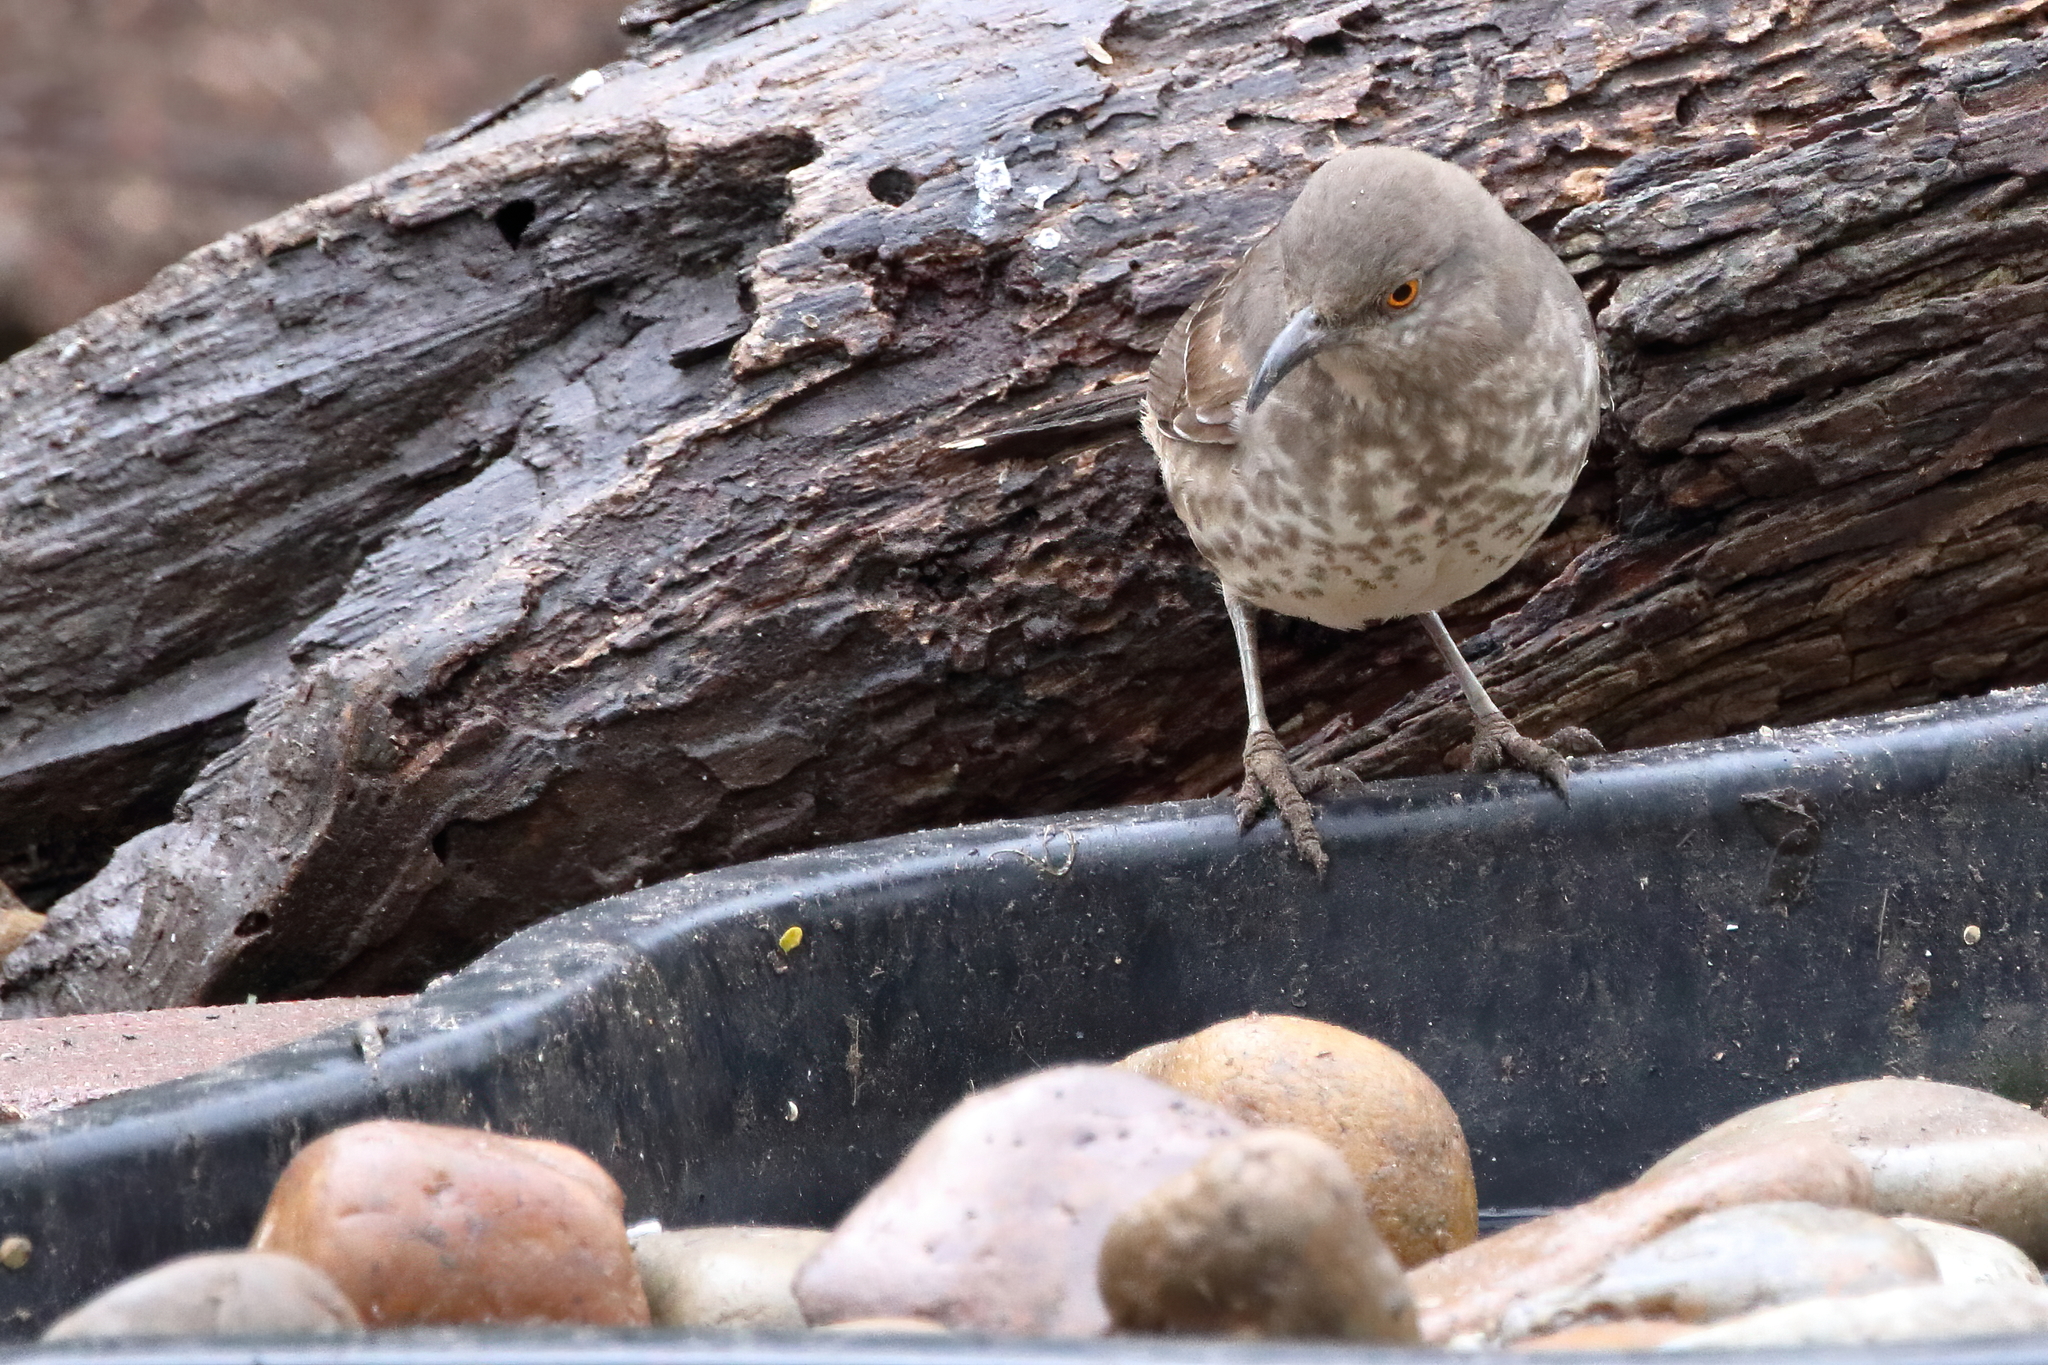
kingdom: Animalia
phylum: Chordata
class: Aves
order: Passeriformes
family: Mimidae
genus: Toxostoma
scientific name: Toxostoma curvirostre
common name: Curve-billed thrasher
